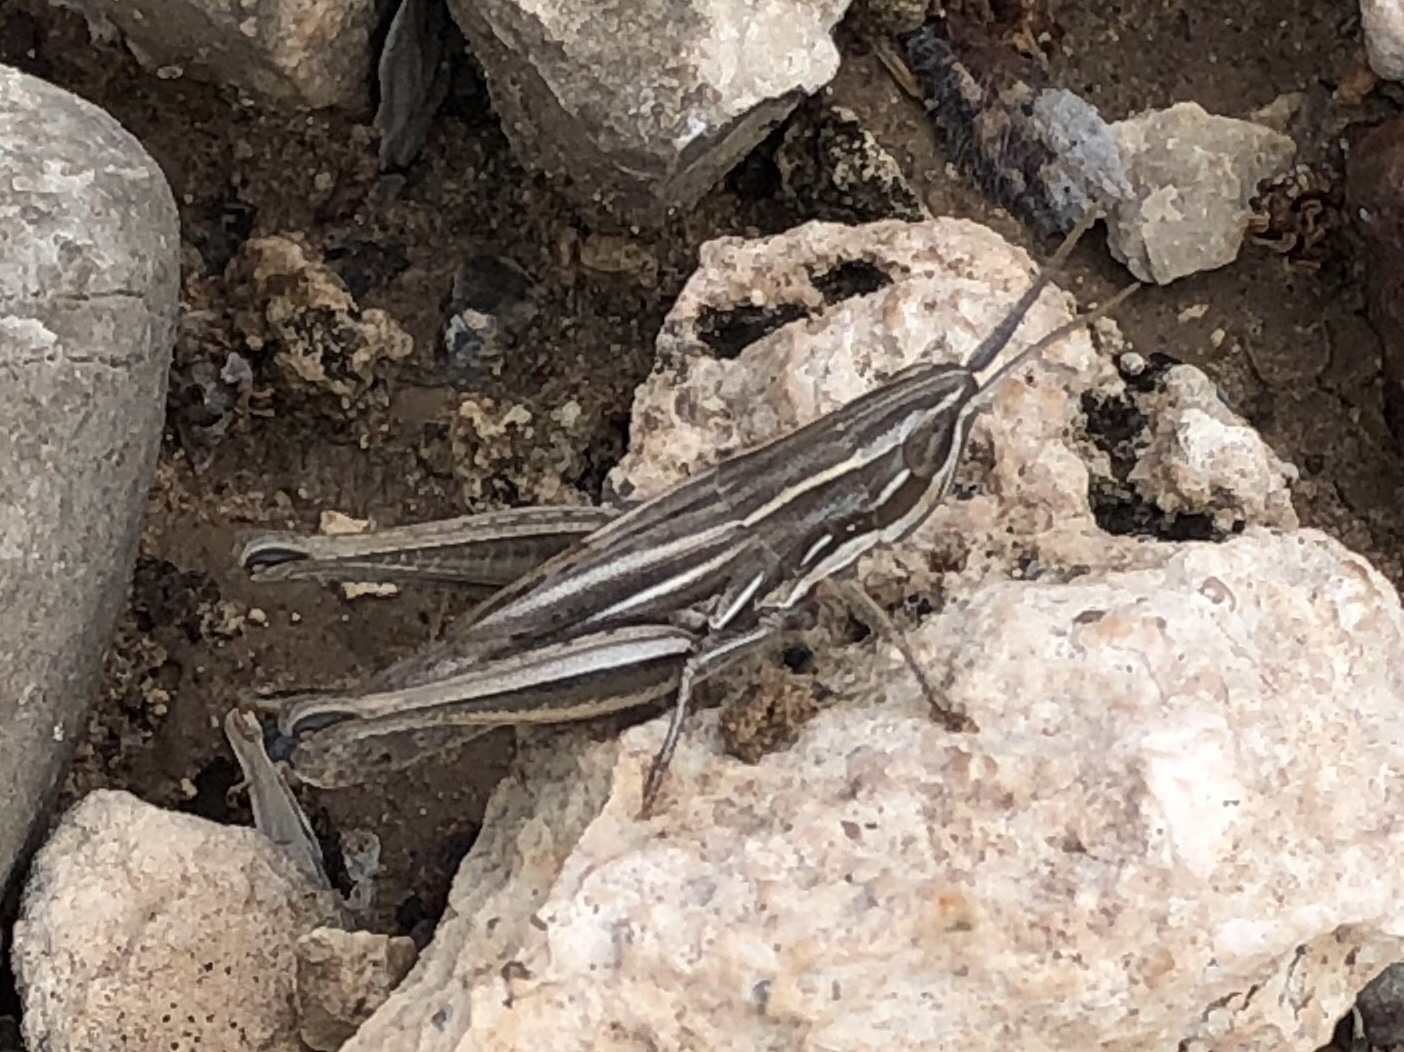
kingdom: Animalia
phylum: Arthropoda
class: Insecta
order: Orthoptera
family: Acrididae
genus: Opeia
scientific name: Opeia obscura
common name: Obscure grasshopper
